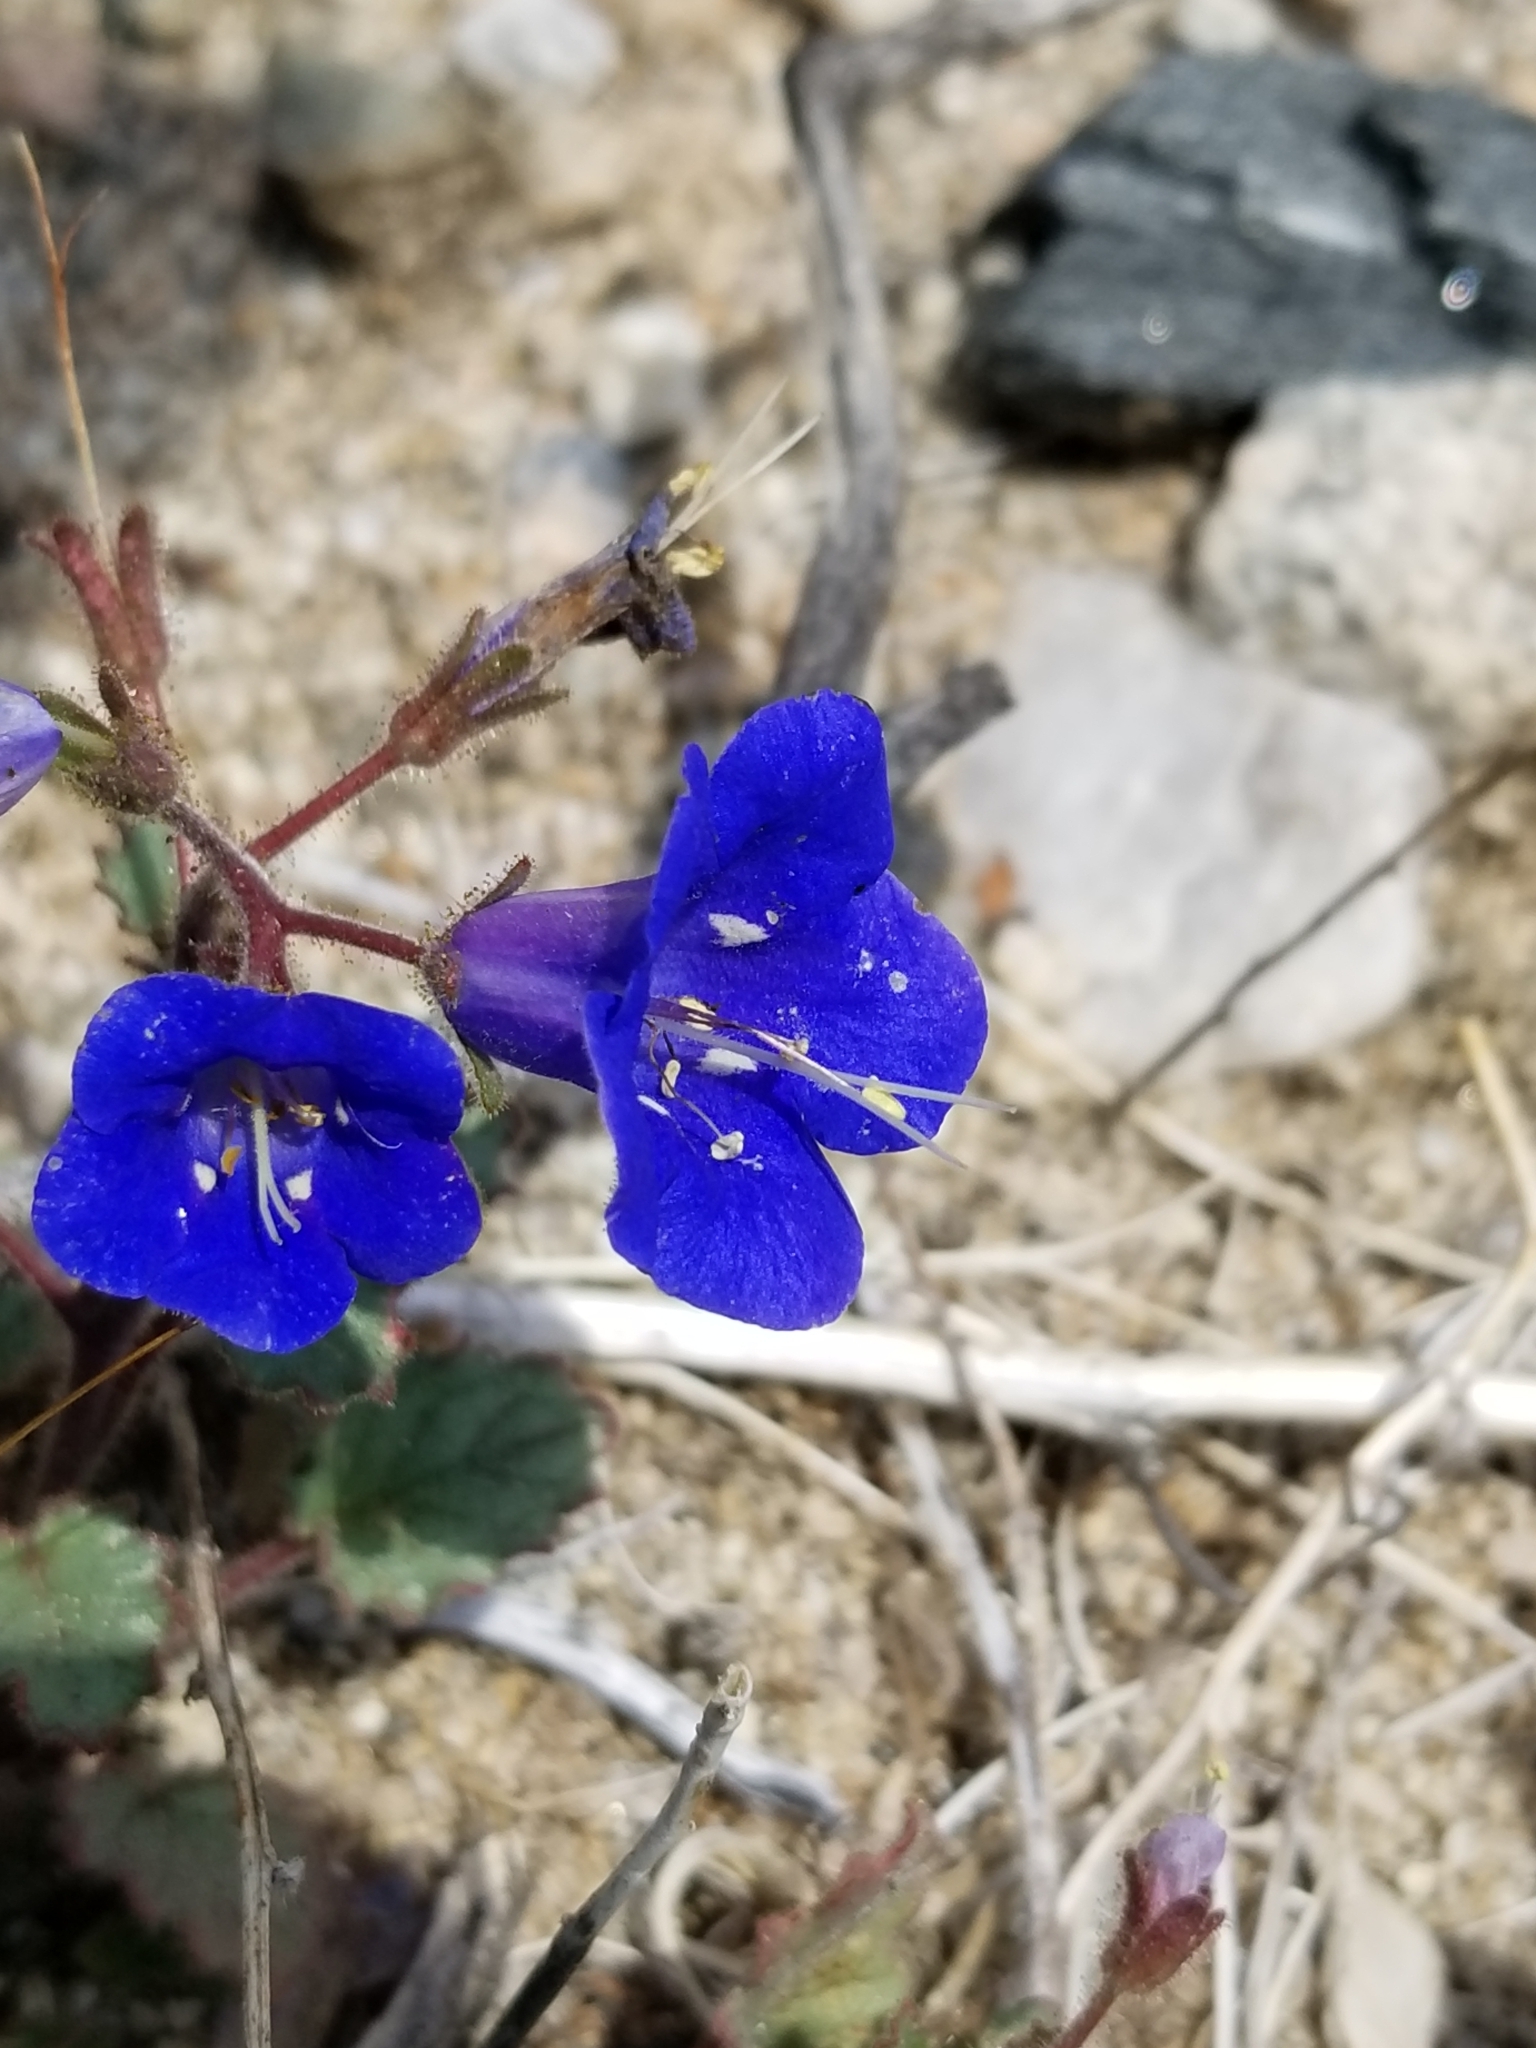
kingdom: Plantae
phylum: Tracheophyta
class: Magnoliopsida
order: Boraginales
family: Hydrophyllaceae
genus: Phacelia
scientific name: Phacelia campanularia
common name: California bluebell
